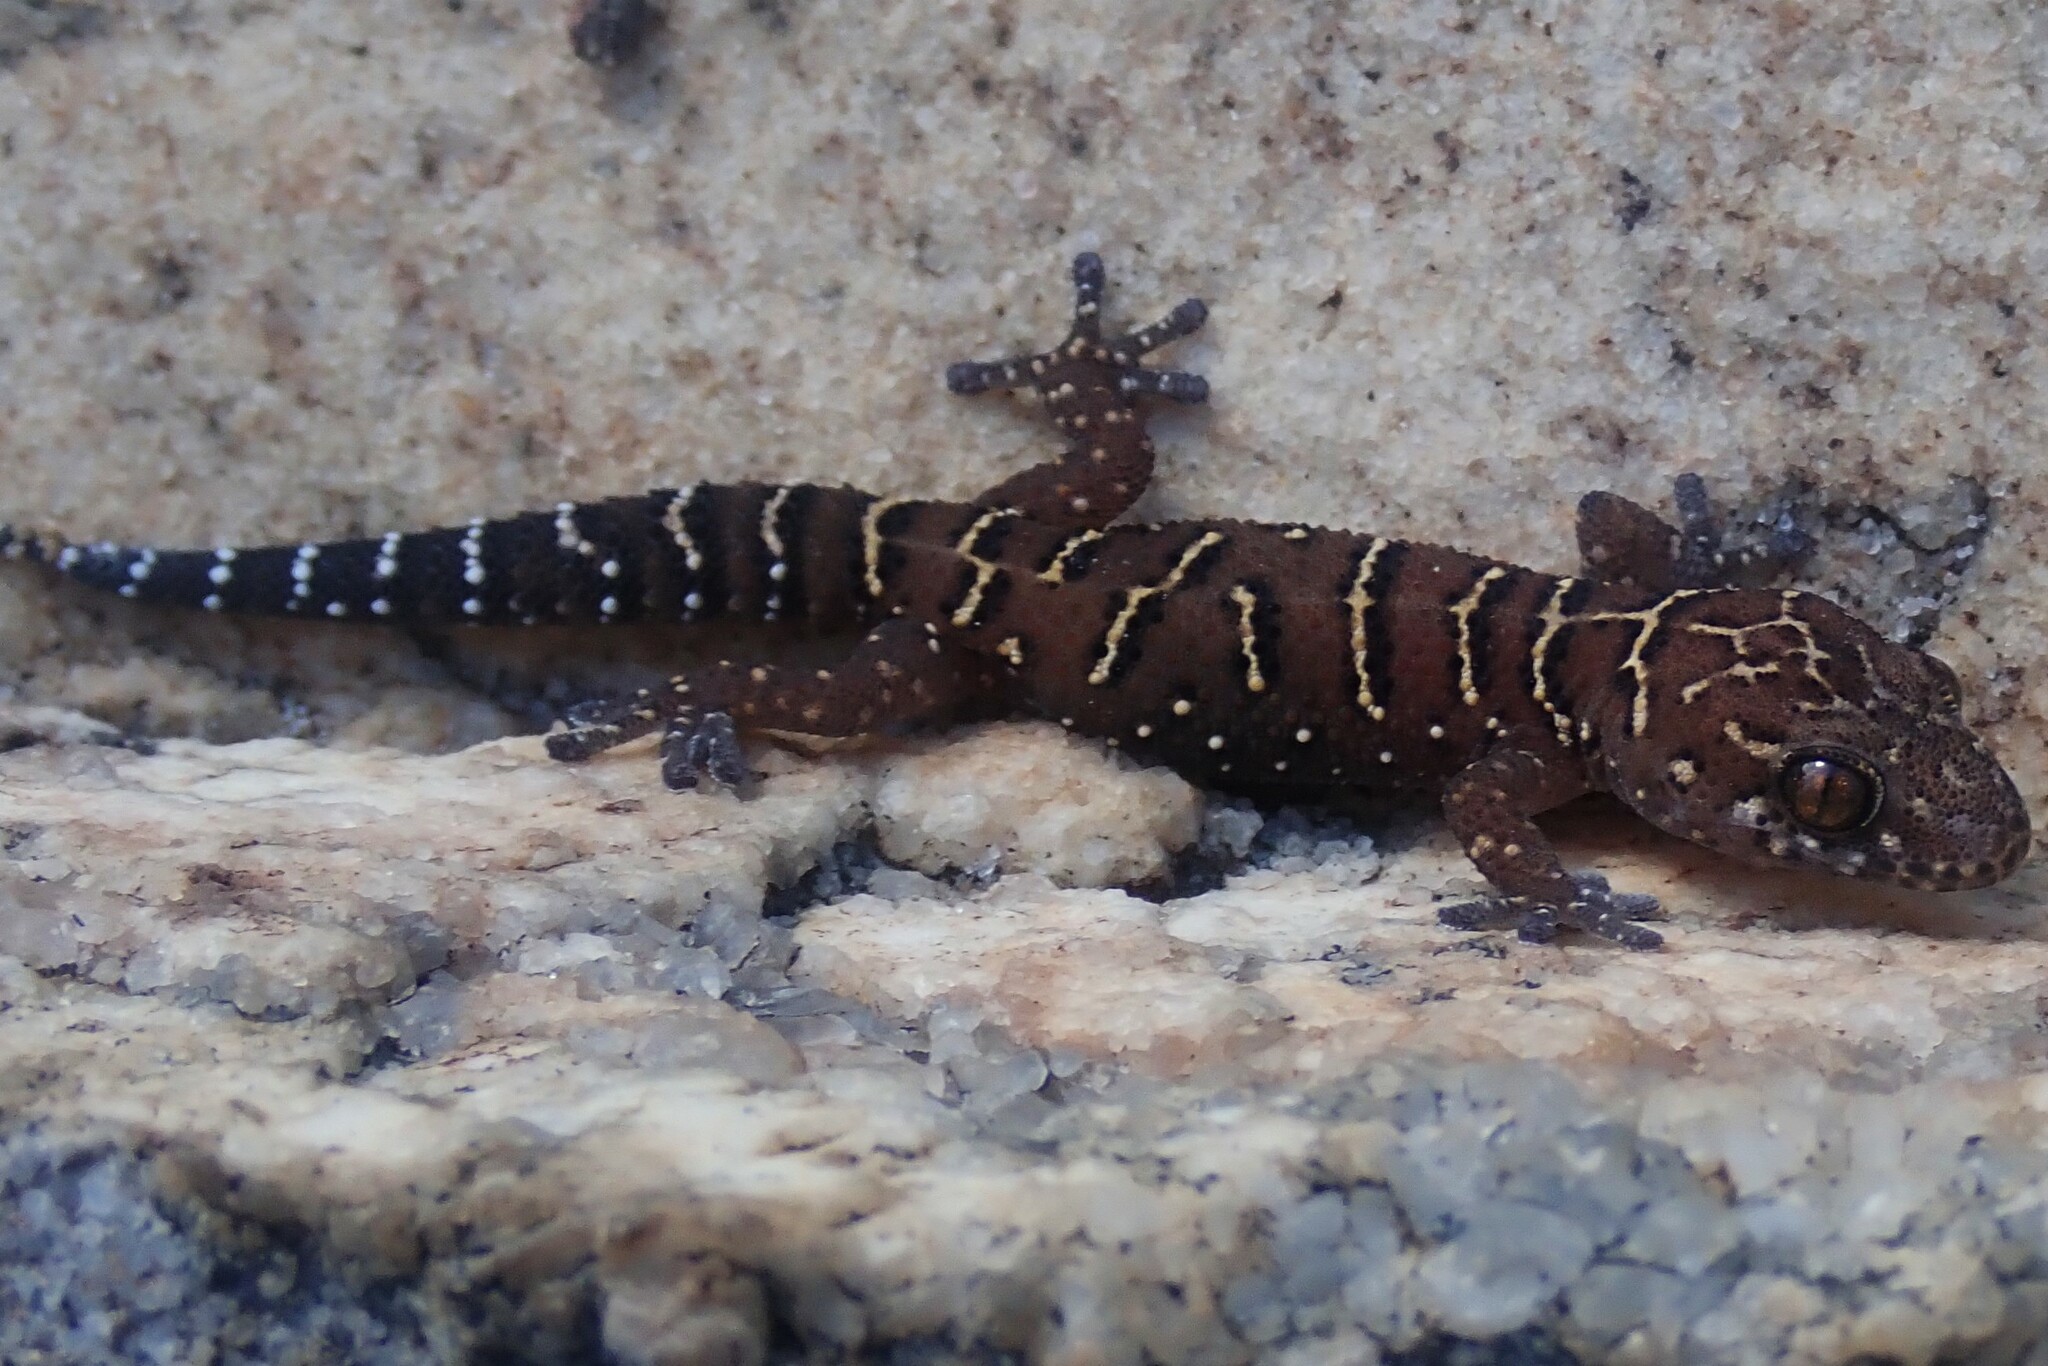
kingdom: Animalia
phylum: Chordata
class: Squamata
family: Gekkonidae
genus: Pachydactylus
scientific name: Pachydactylus vansoni
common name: Van son's gecko
